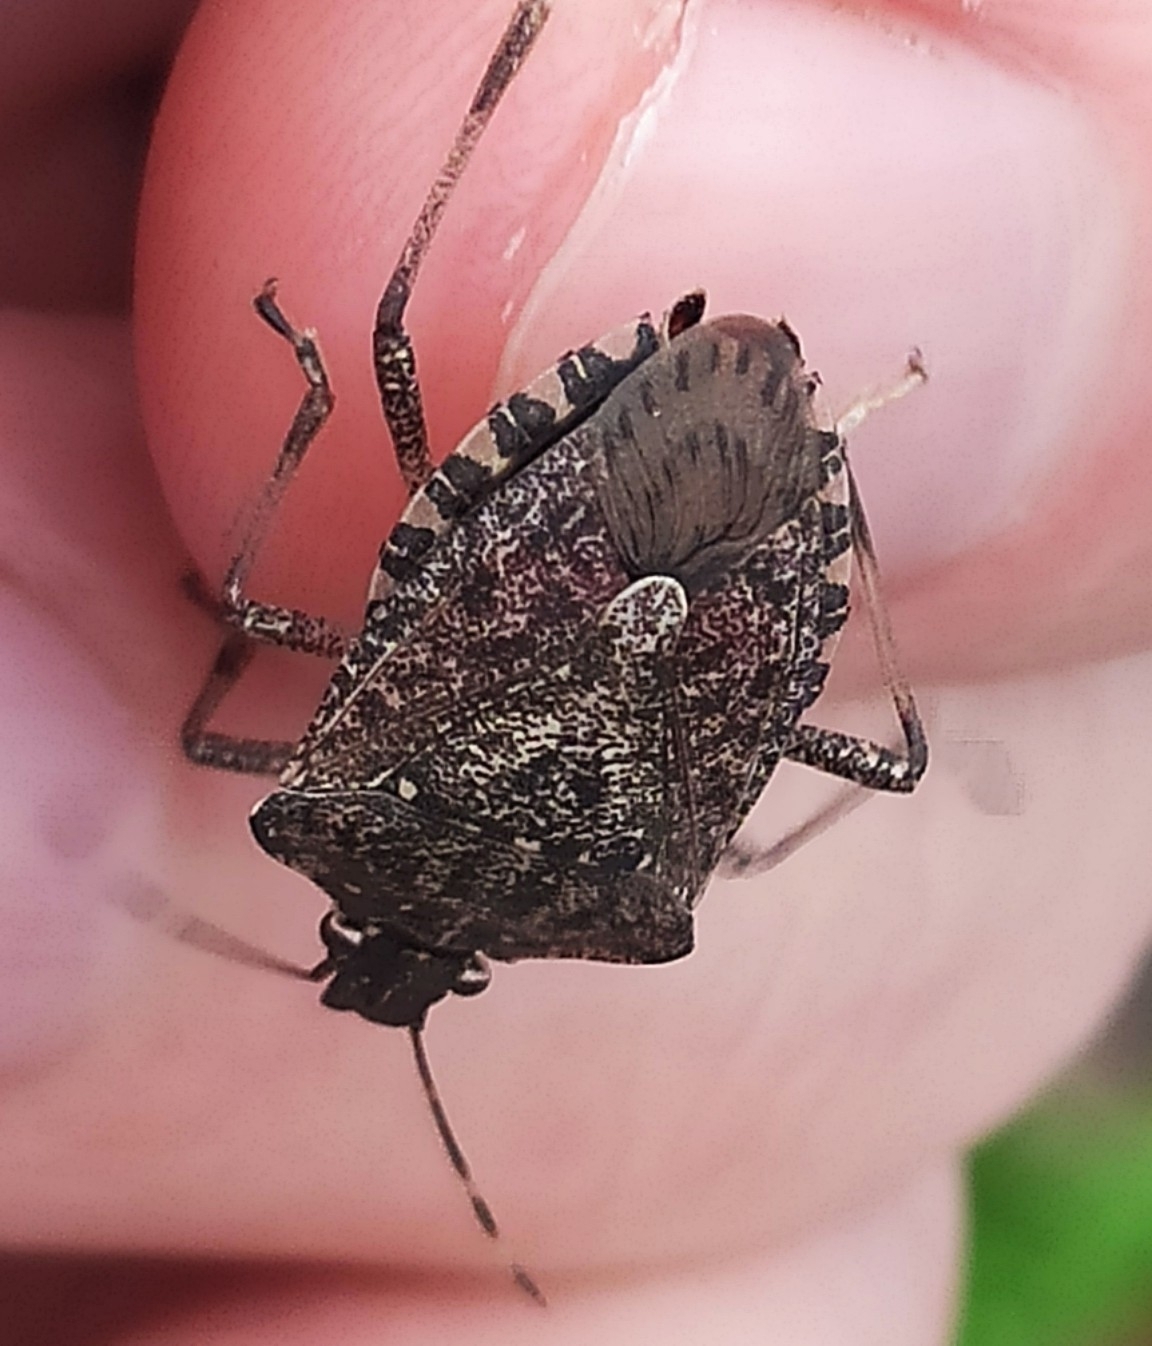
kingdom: Animalia
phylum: Arthropoda
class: Insecta
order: Hemiptera
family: Pentatomidae
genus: Halyomorpha
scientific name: Halyomorpha halys
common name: Brown marmorated stink bug
